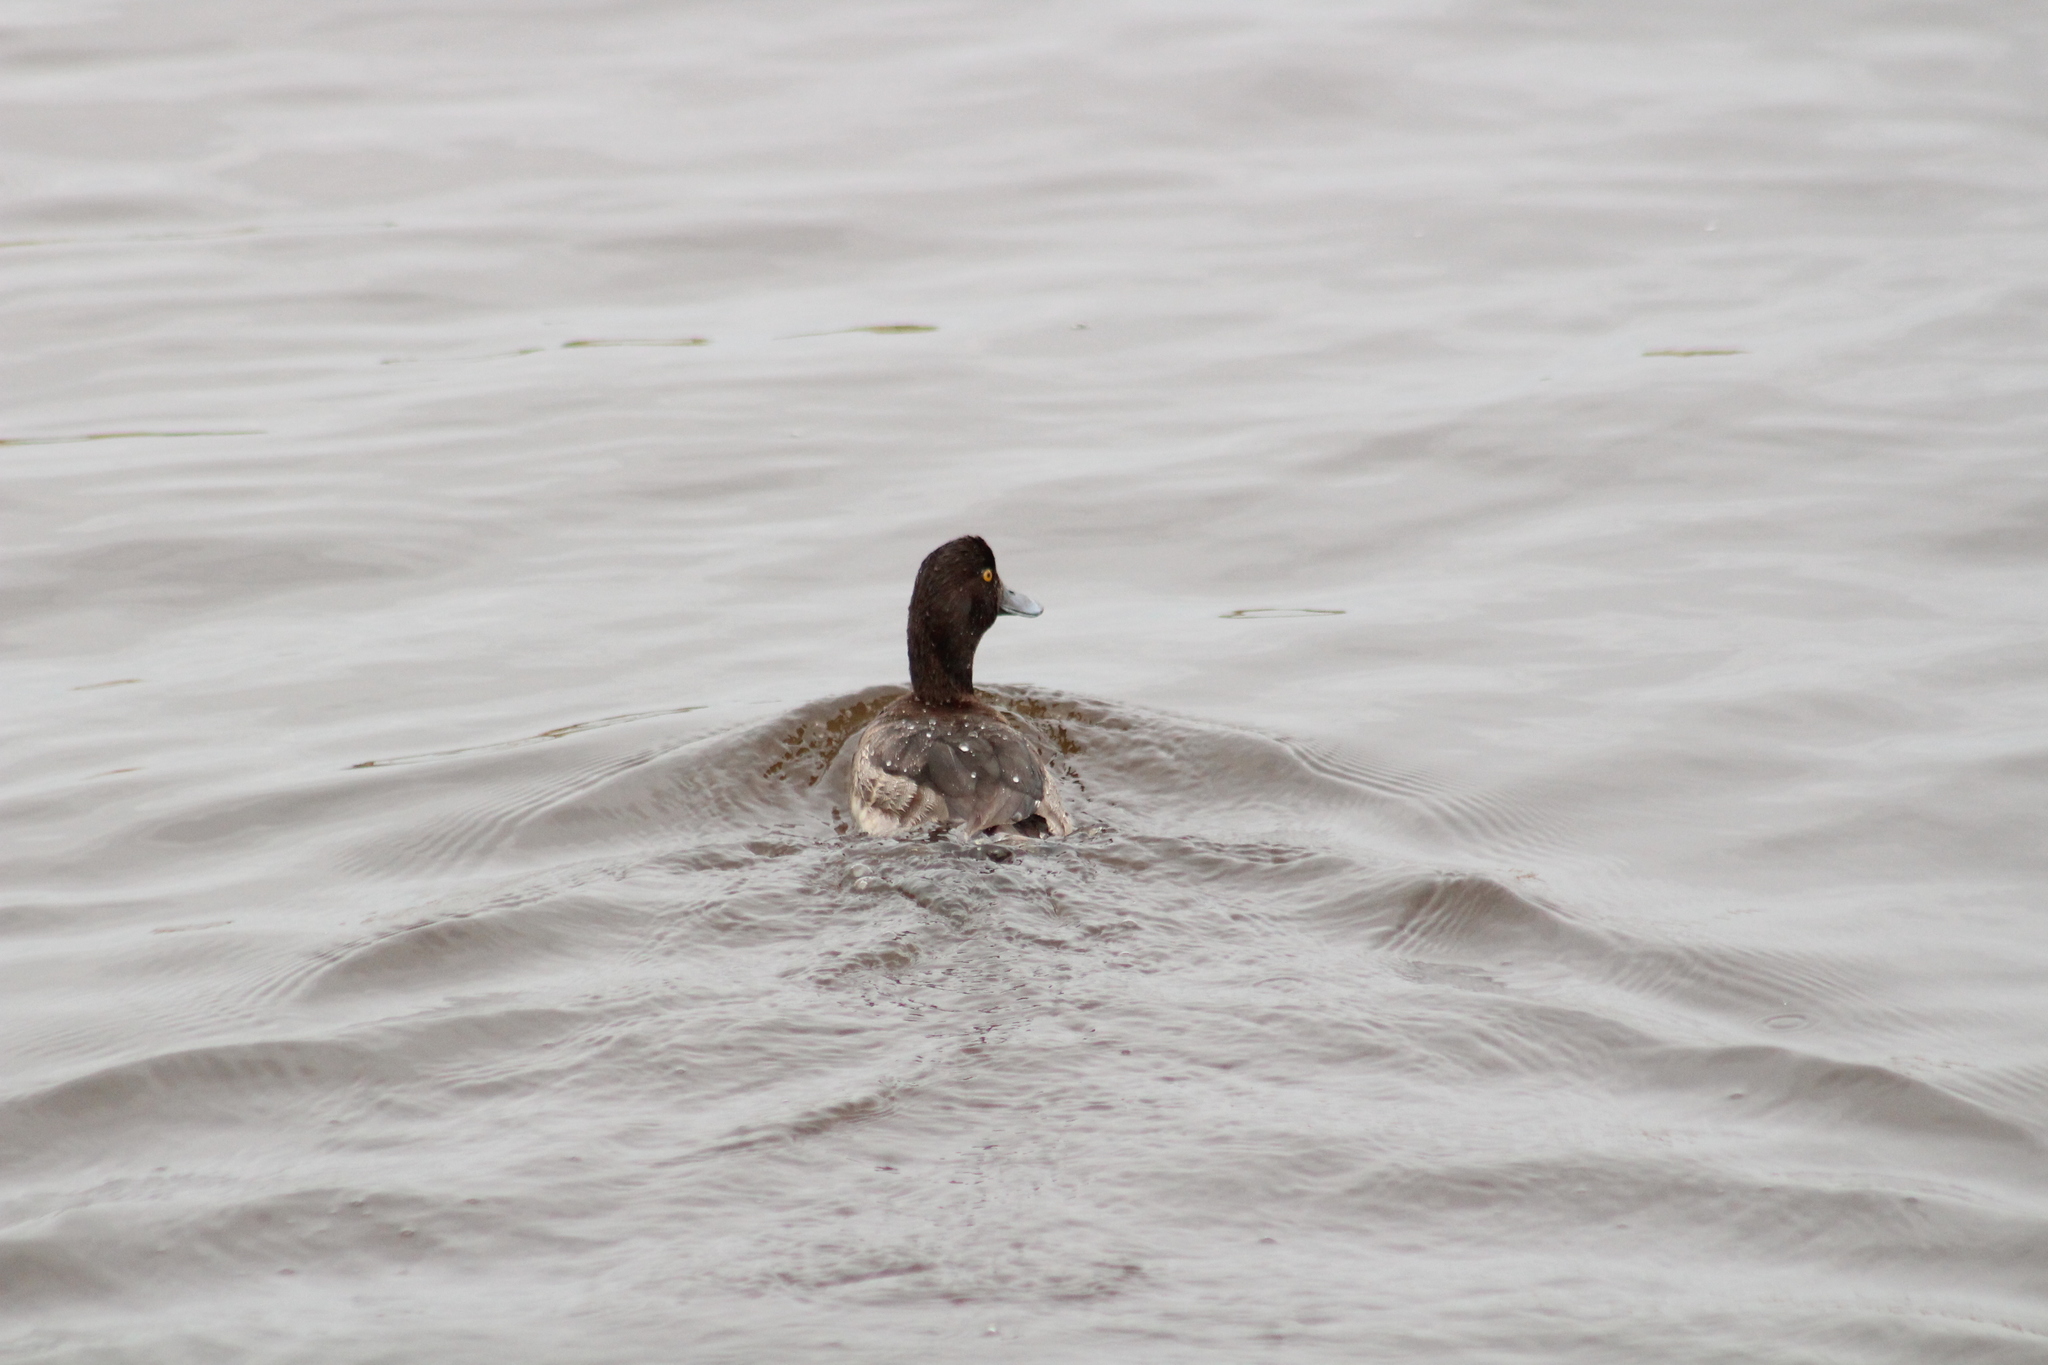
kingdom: Animalia
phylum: Chordata
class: Aves
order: Anseriformes
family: Anatidae
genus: Aythya
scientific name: Aythya fuligula
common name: Tufted duck
